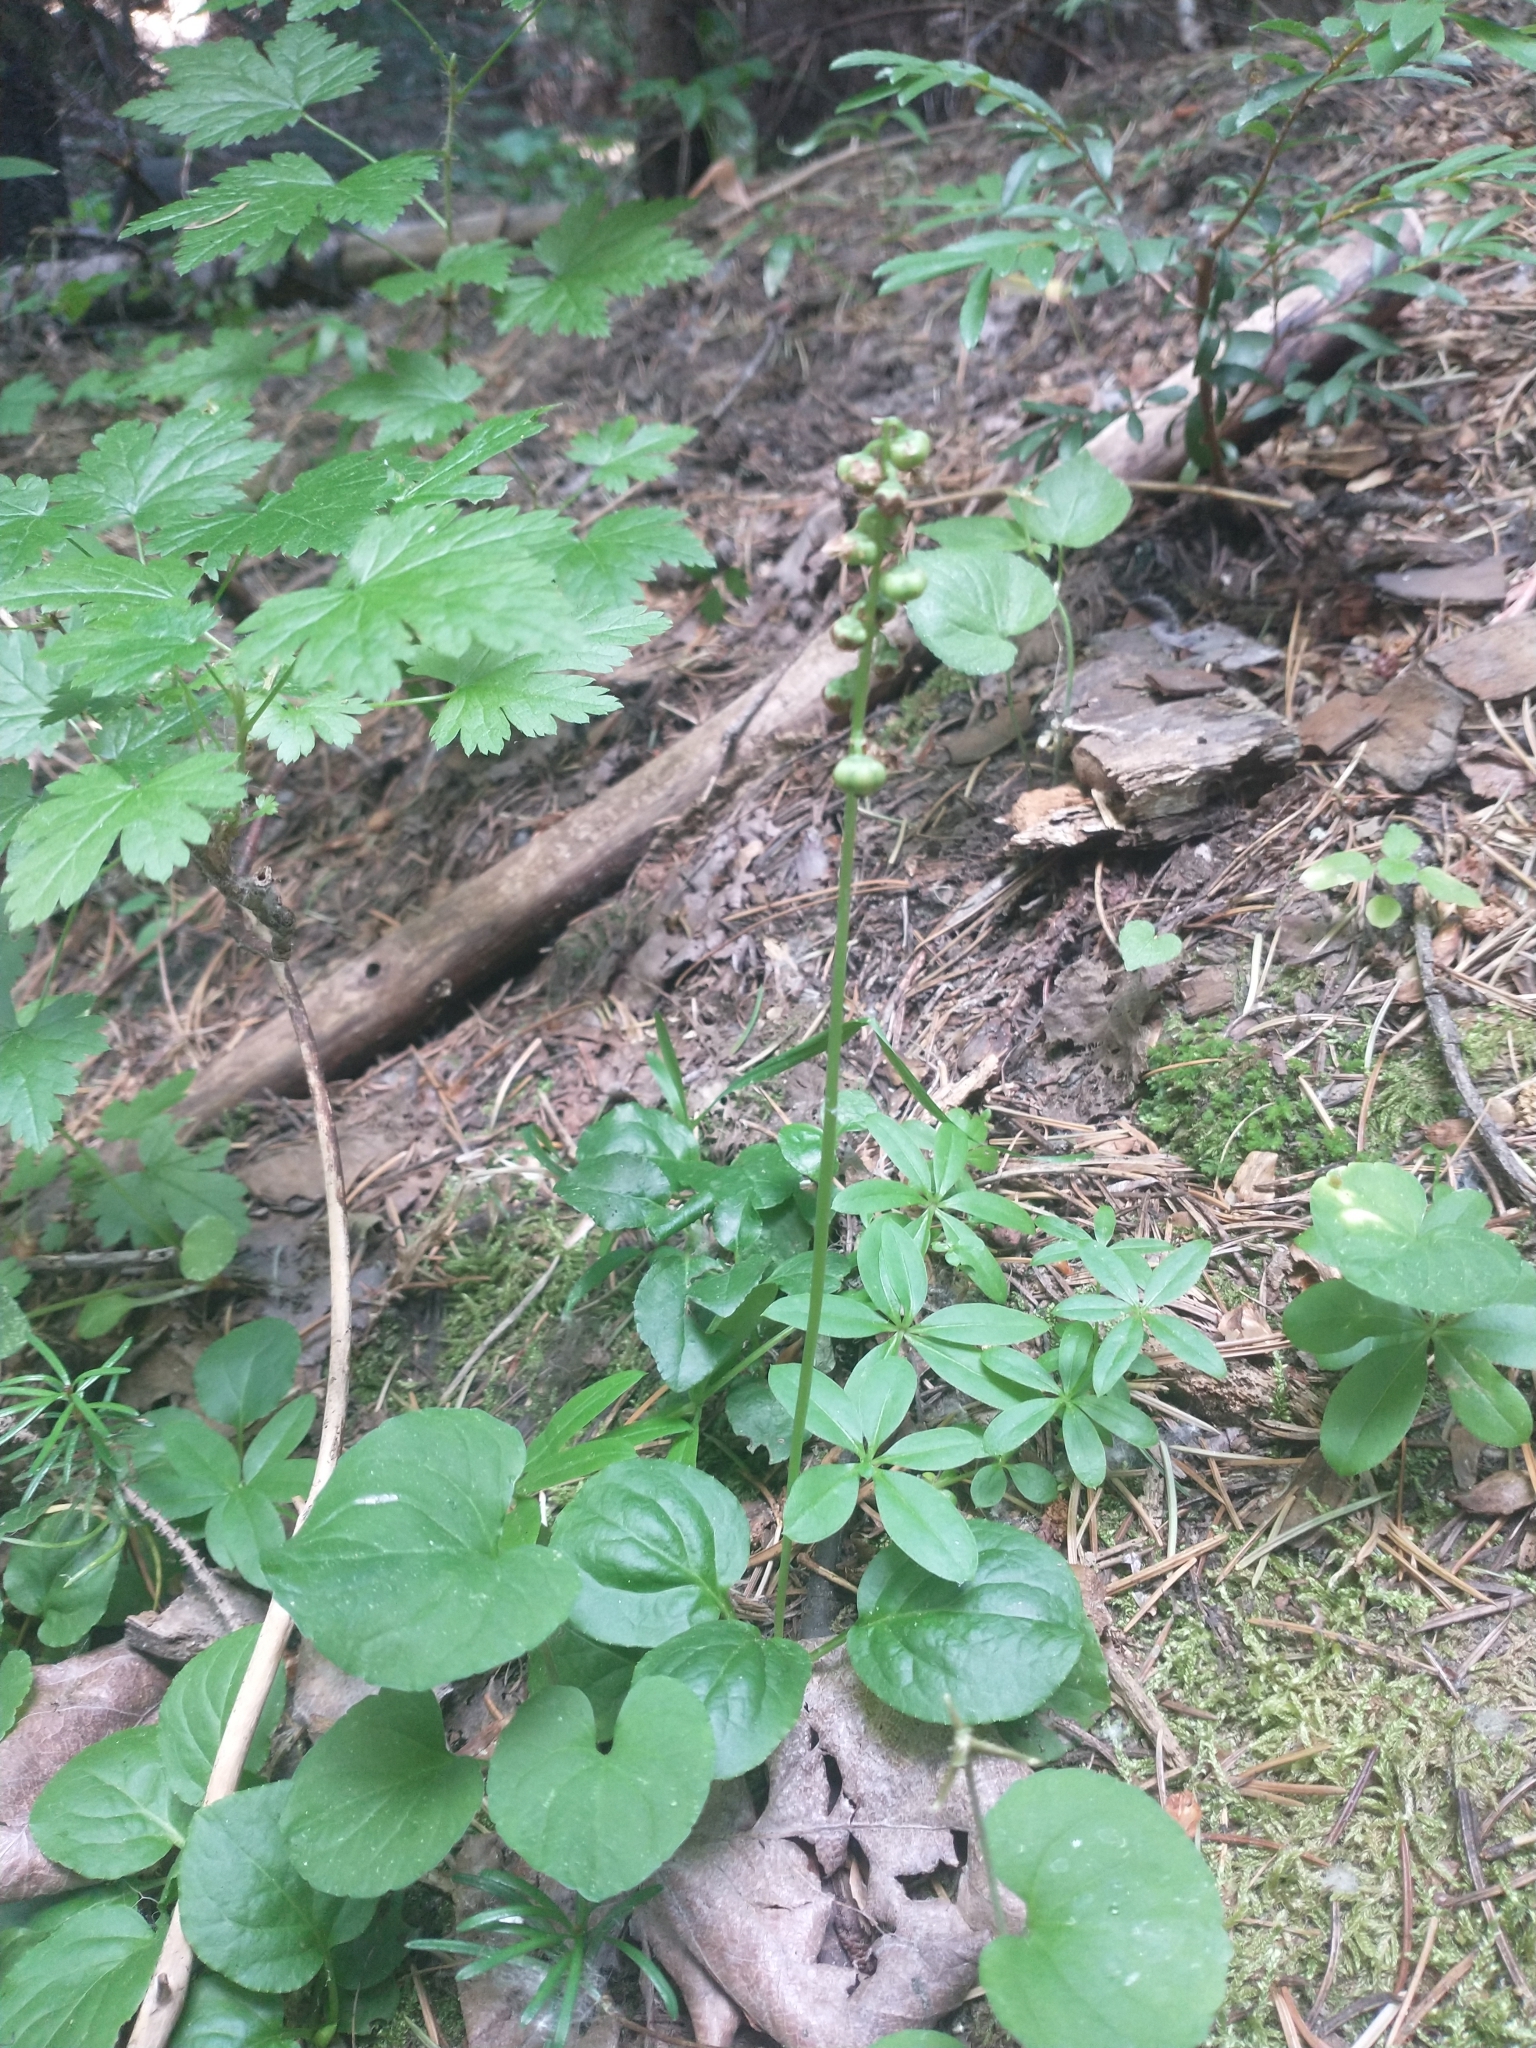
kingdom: Plantae
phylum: Tracheophyta
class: Magnoliopsida
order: Ericales
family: Ericaceae
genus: Pyrola
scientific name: Pyrola asarifolia
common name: Bog wintergreen
